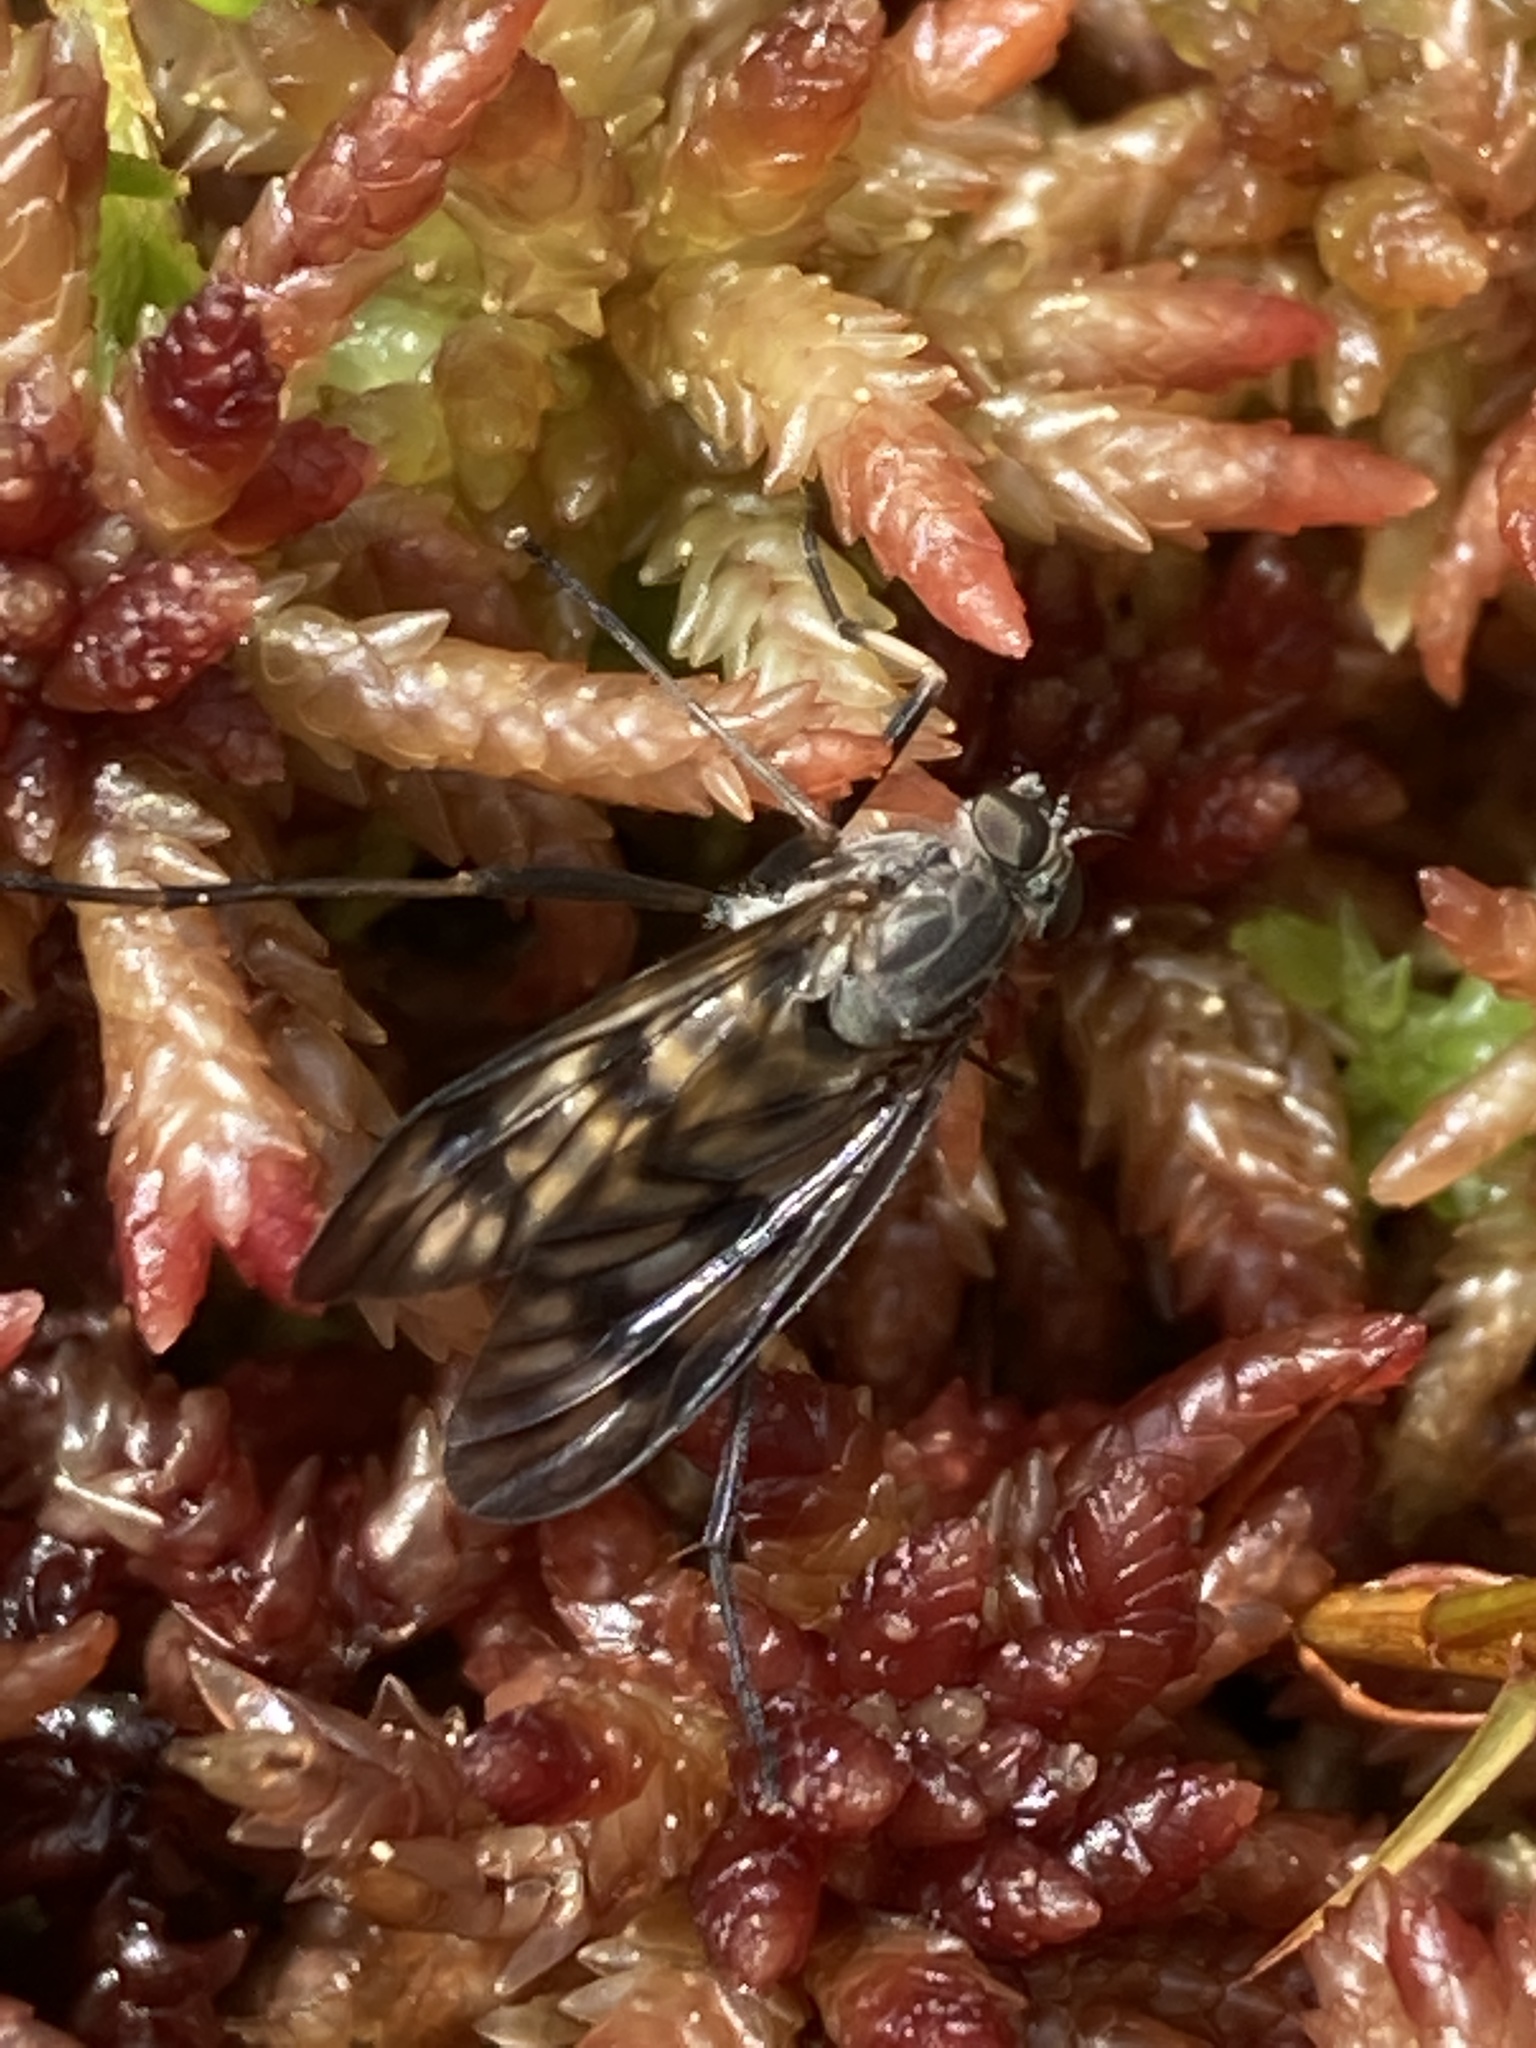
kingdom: Animalia
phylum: Arthropoda
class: Insecta
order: Diptera
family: Rhagionidae
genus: Rhagio
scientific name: Rhagio mystaceus
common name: Common snipe fly
